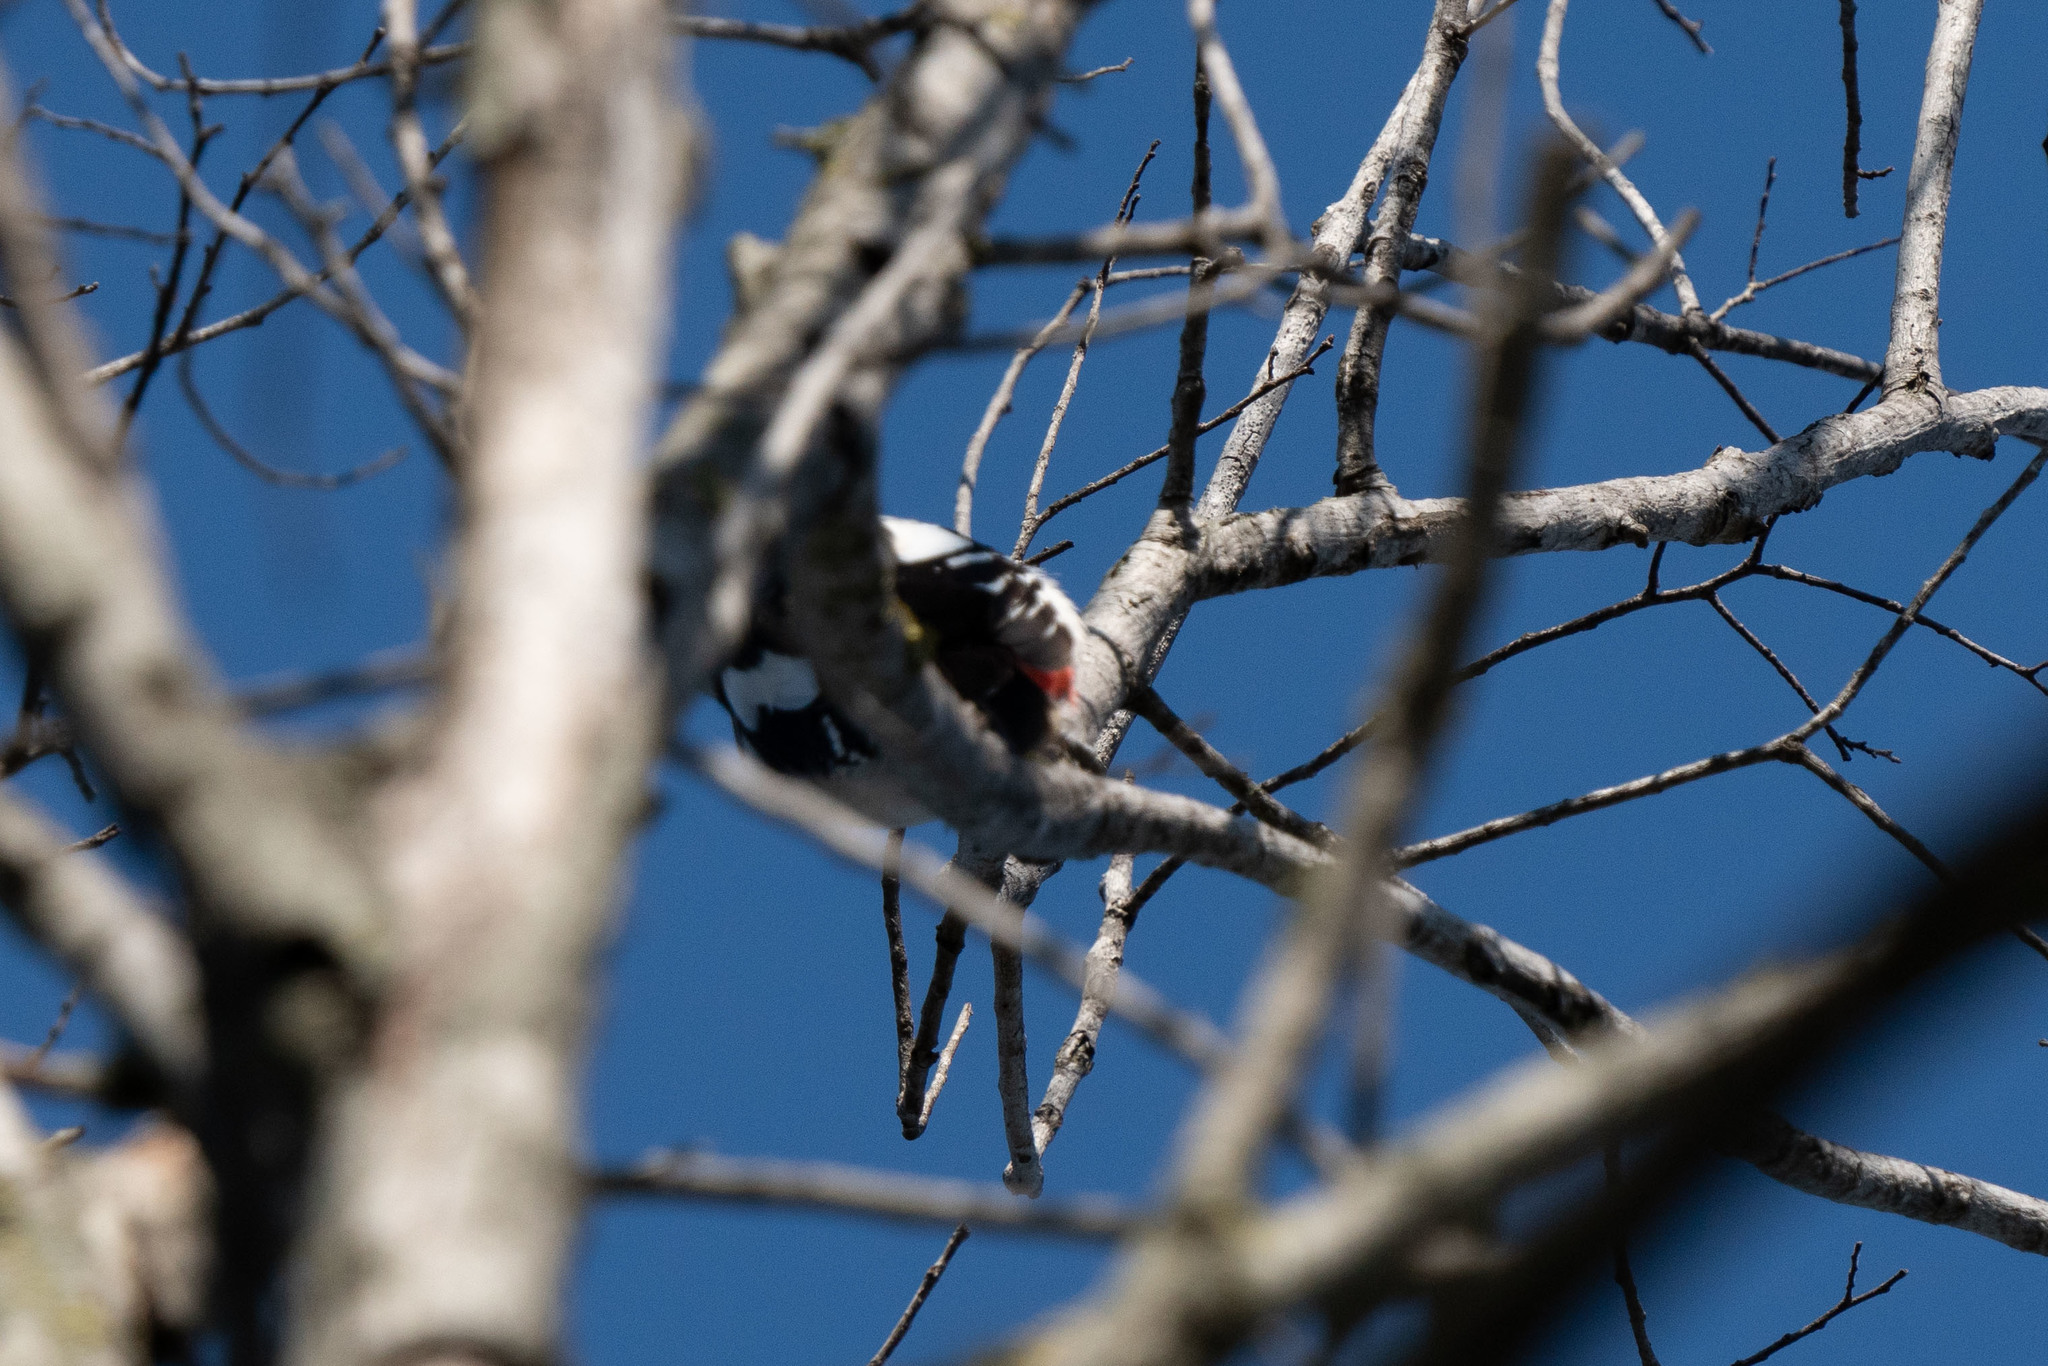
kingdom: Animalia
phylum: Chordata
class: Aves
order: Piciformes
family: Picidae
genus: Dendrocopos
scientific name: Dendrocopos major
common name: Great spotted woodpecker
